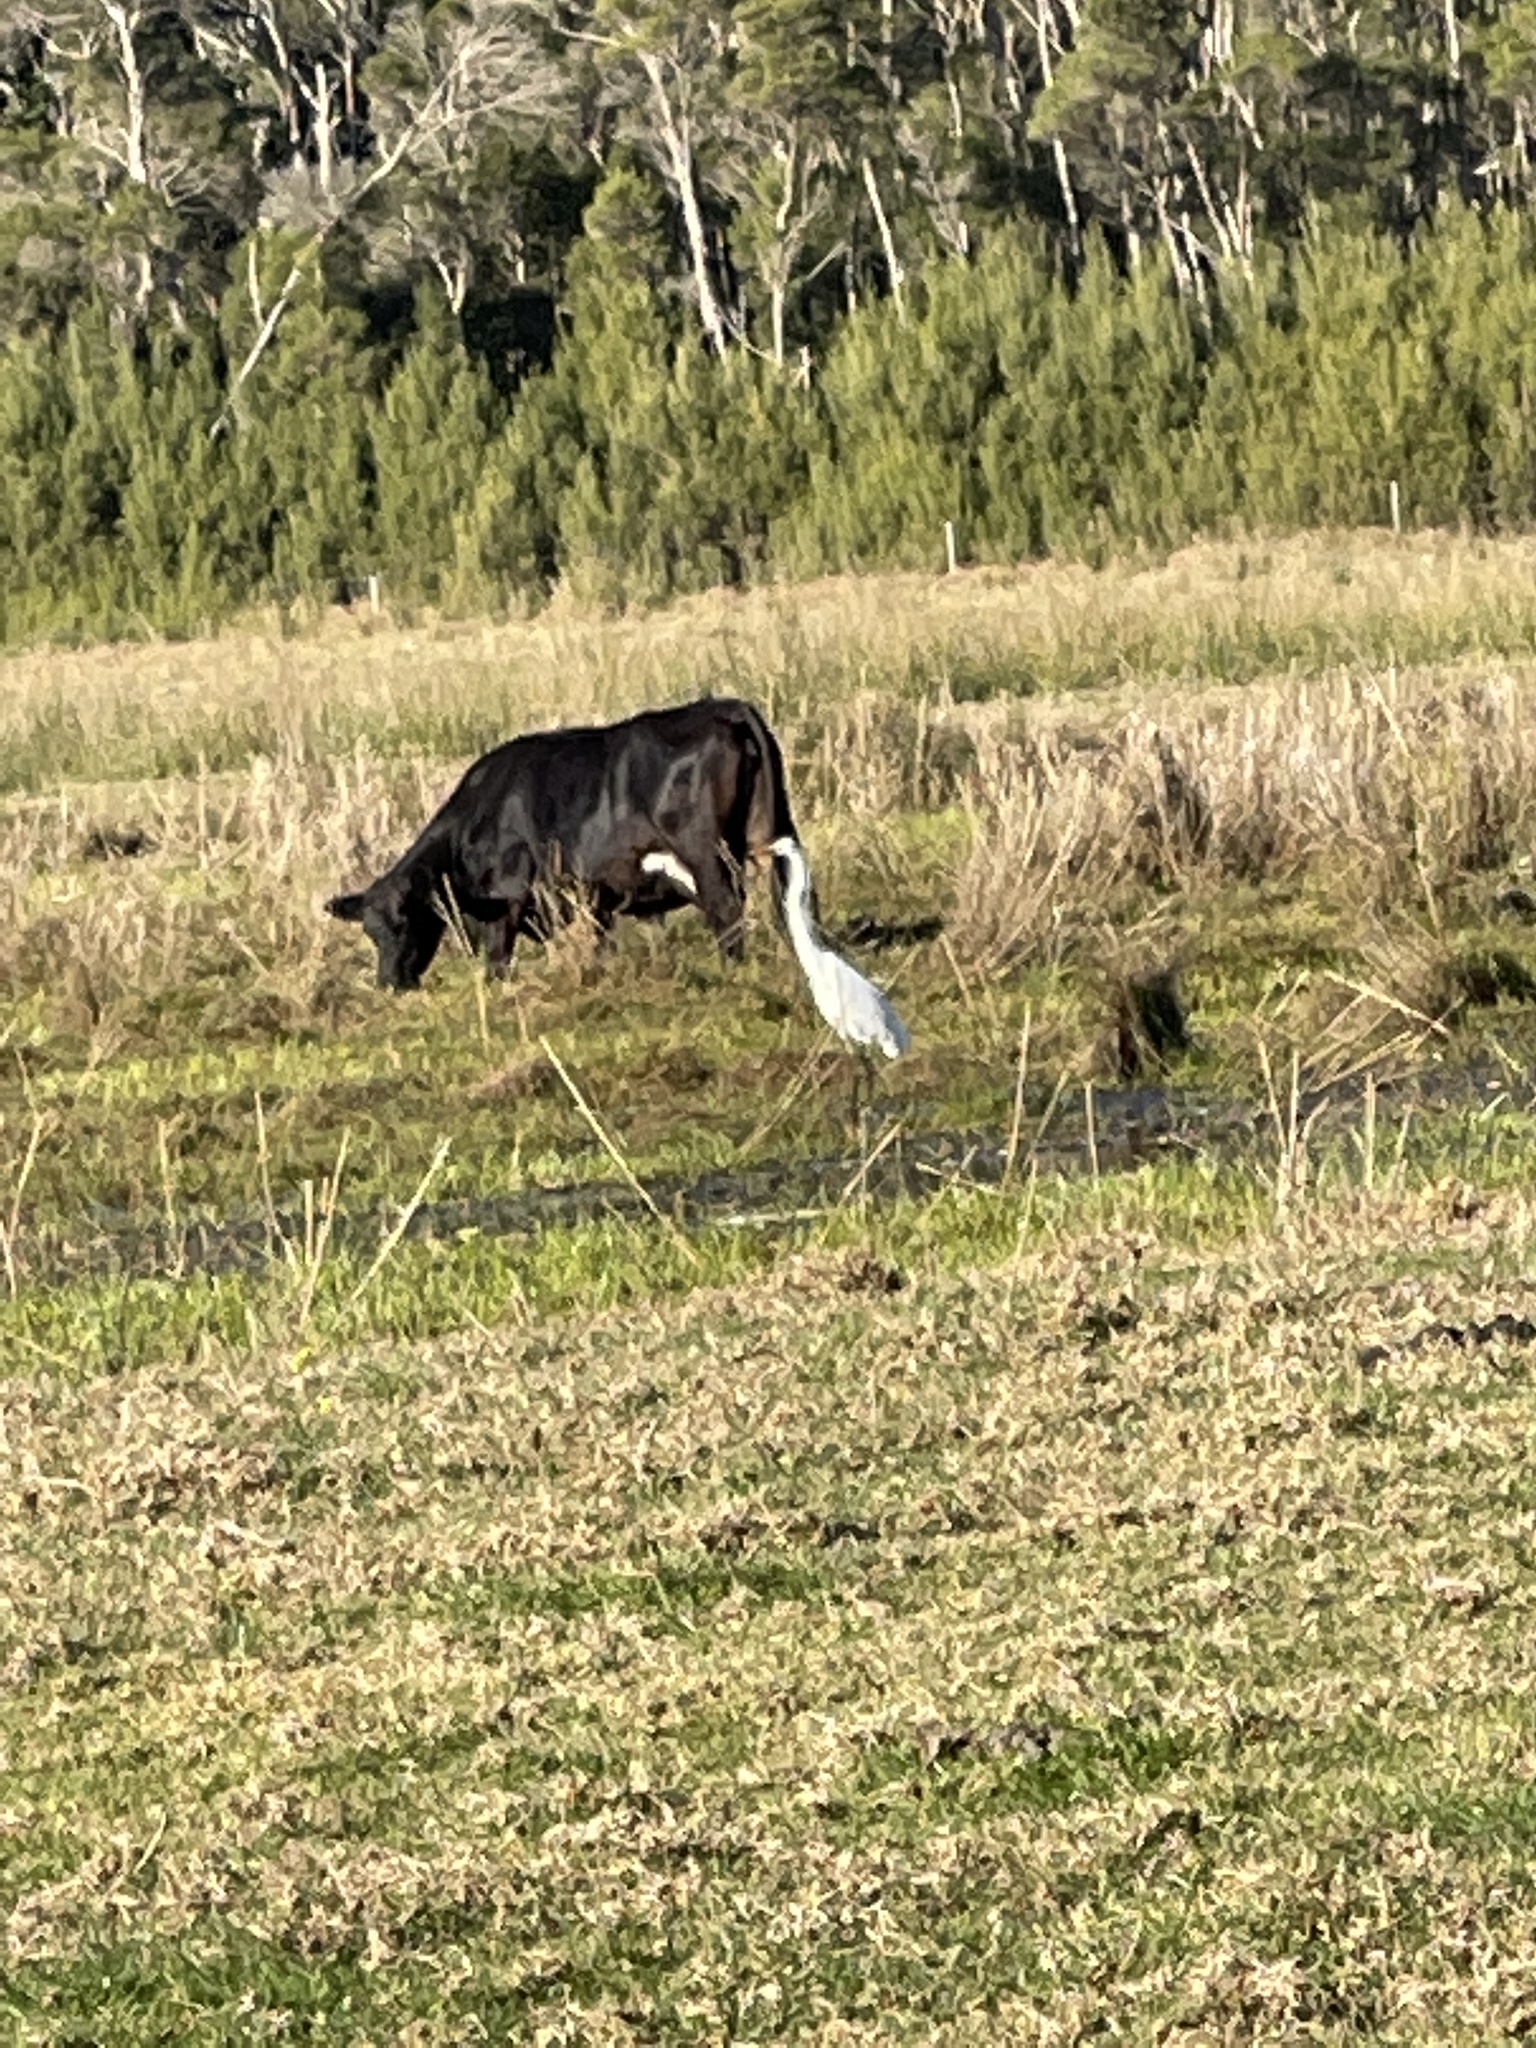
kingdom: Animalia
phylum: Chordata
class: Aves
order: Pelecaniformes
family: Ardeidae
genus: Ardea
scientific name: Ardea alba
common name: Great egret
